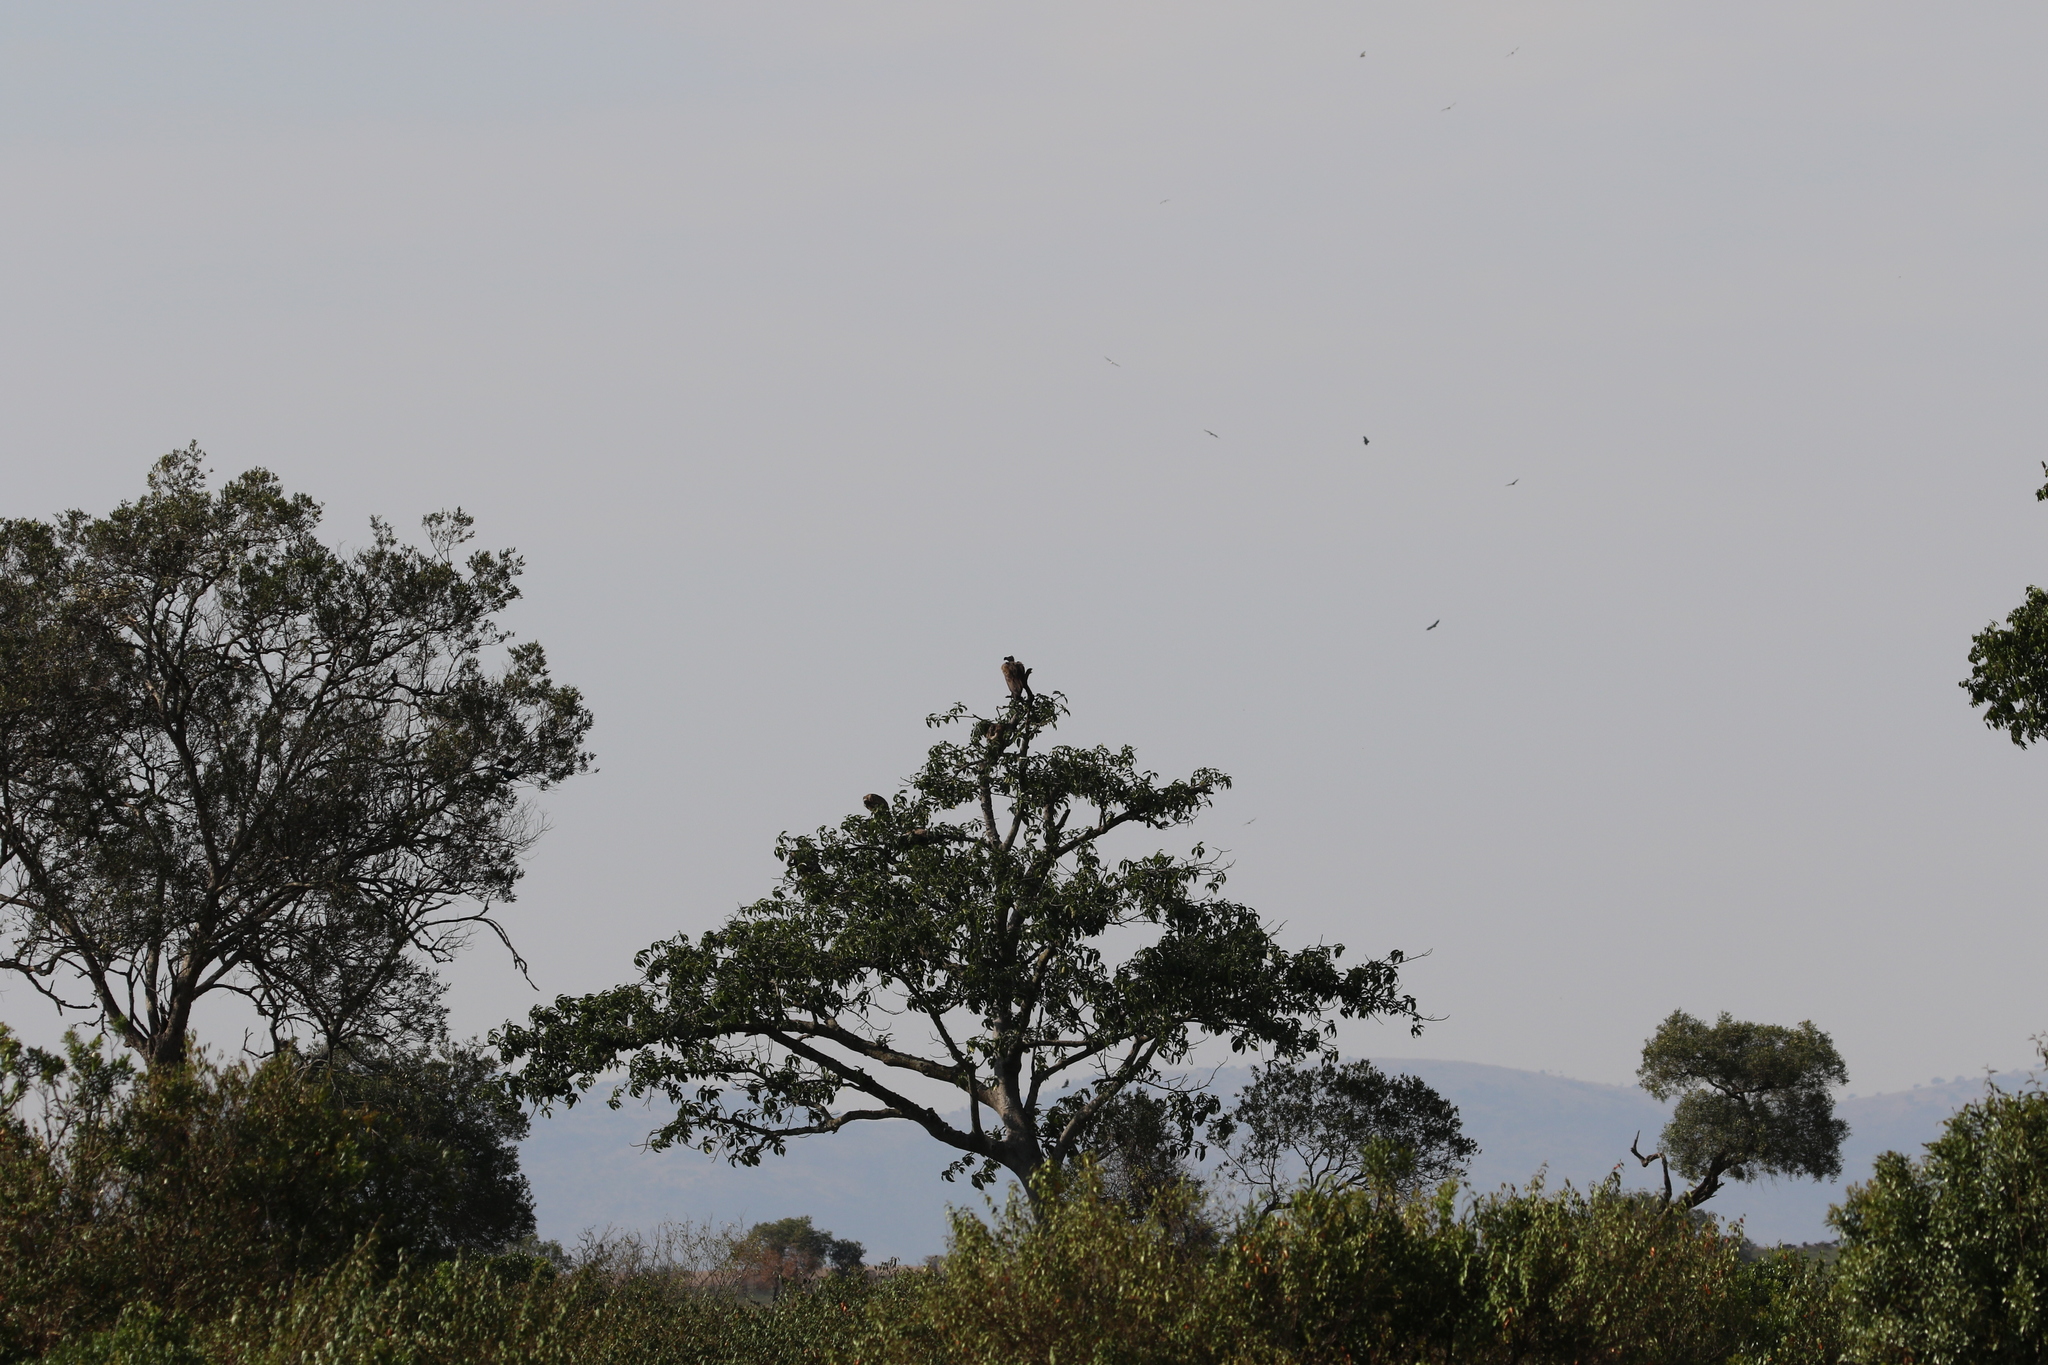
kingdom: Animalia
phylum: Chordata
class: Aves
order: Accipitriformes
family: Accipitridae
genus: Torgos
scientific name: Torgos tracheliotos
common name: Lappet-faced vulture
